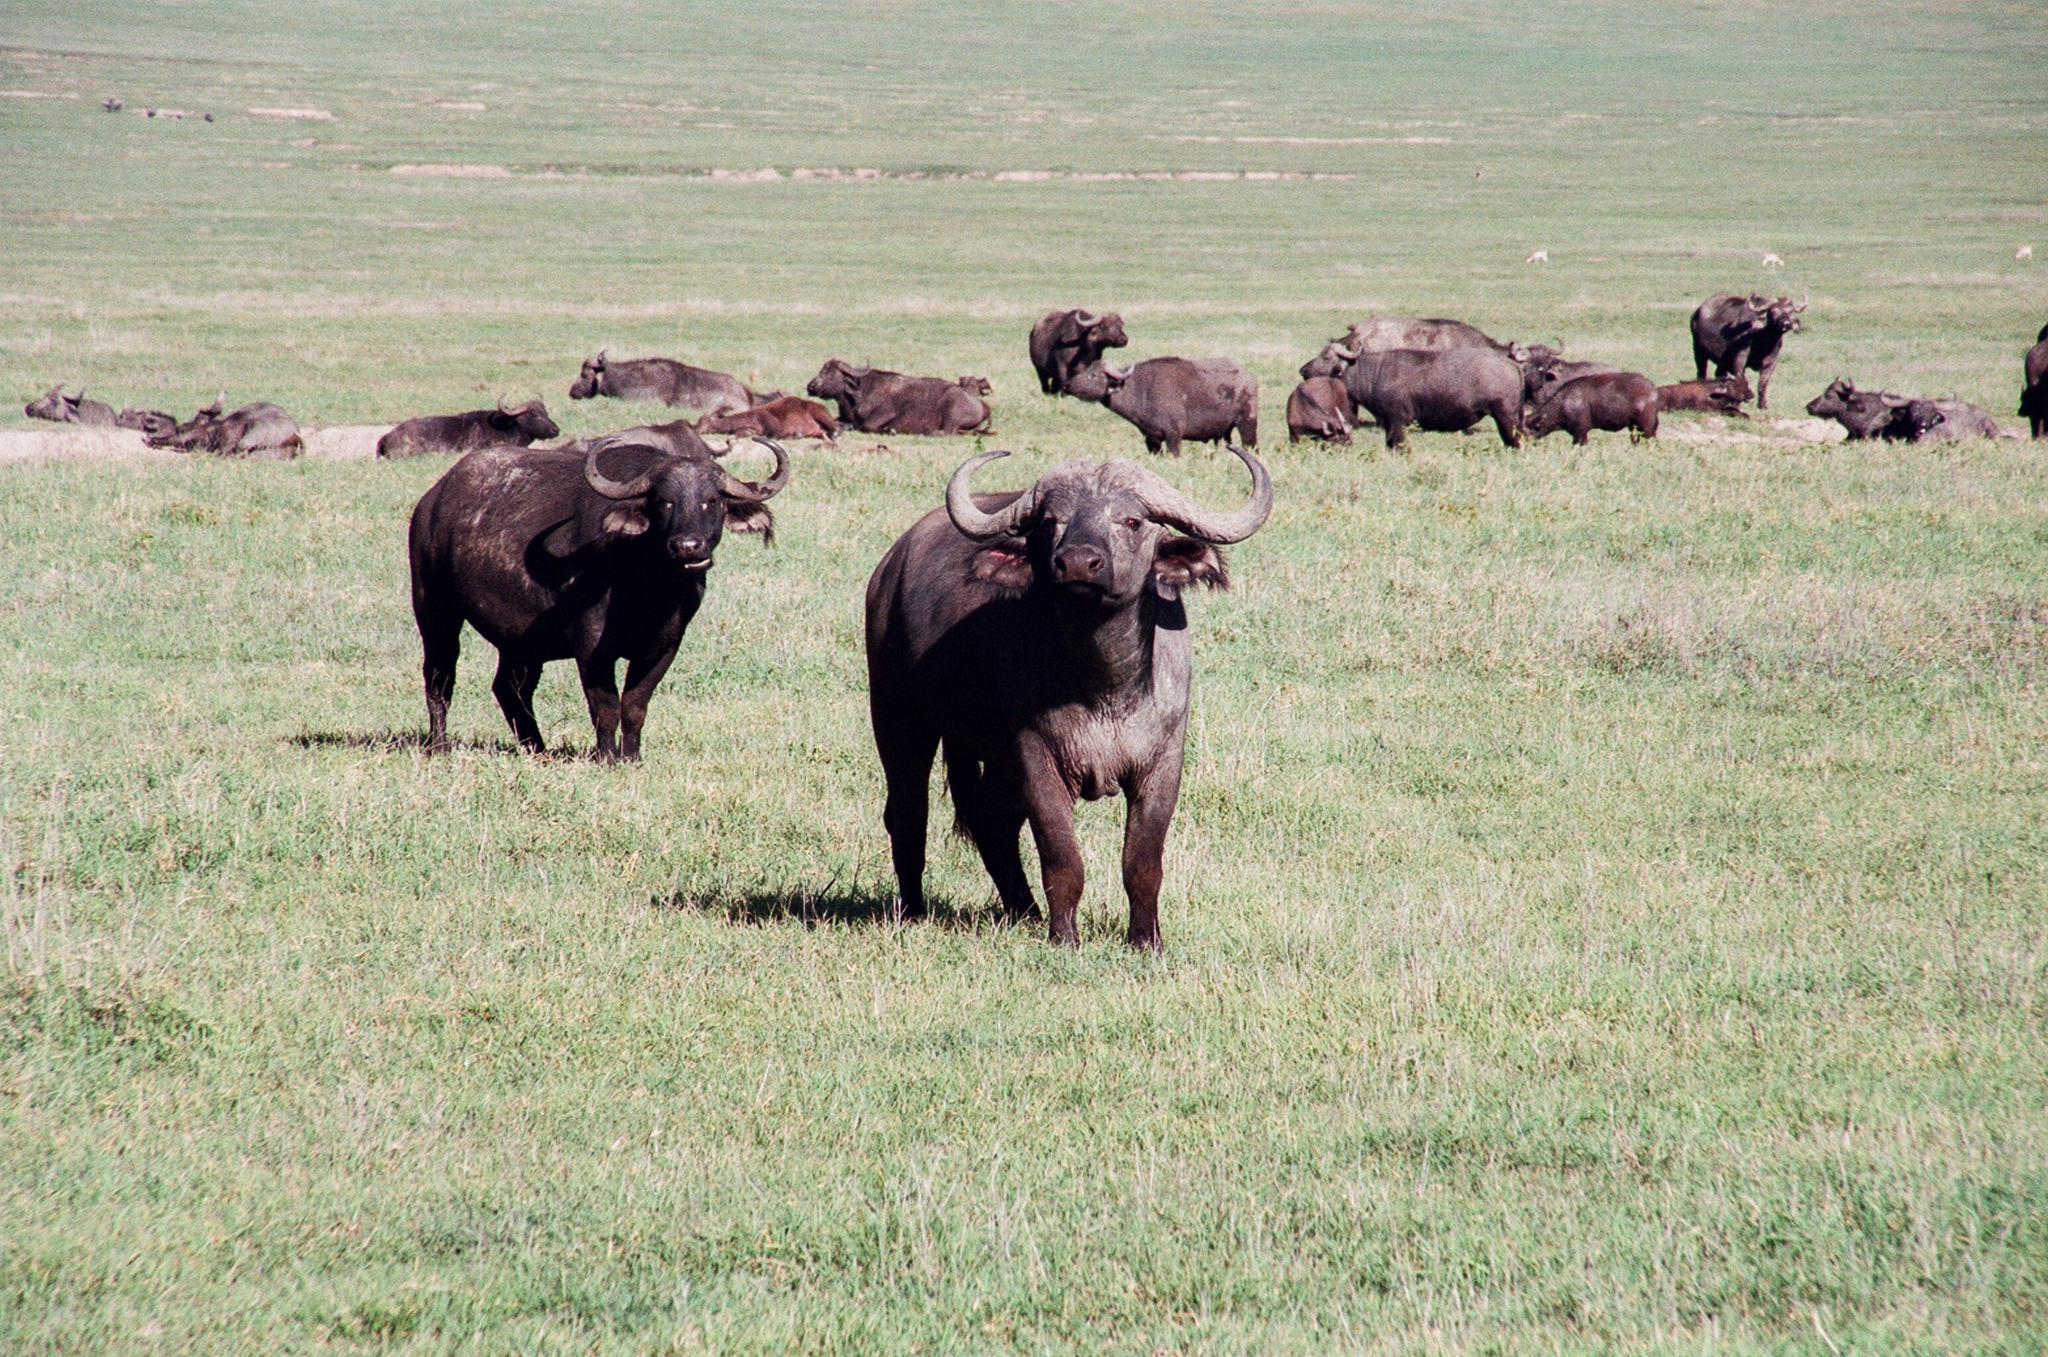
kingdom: Animalia
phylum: Chordata
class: Mammalia
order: Artiodactyla
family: Bovidae
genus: Syncerus
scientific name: Syncerus caffer
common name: African buffalo
